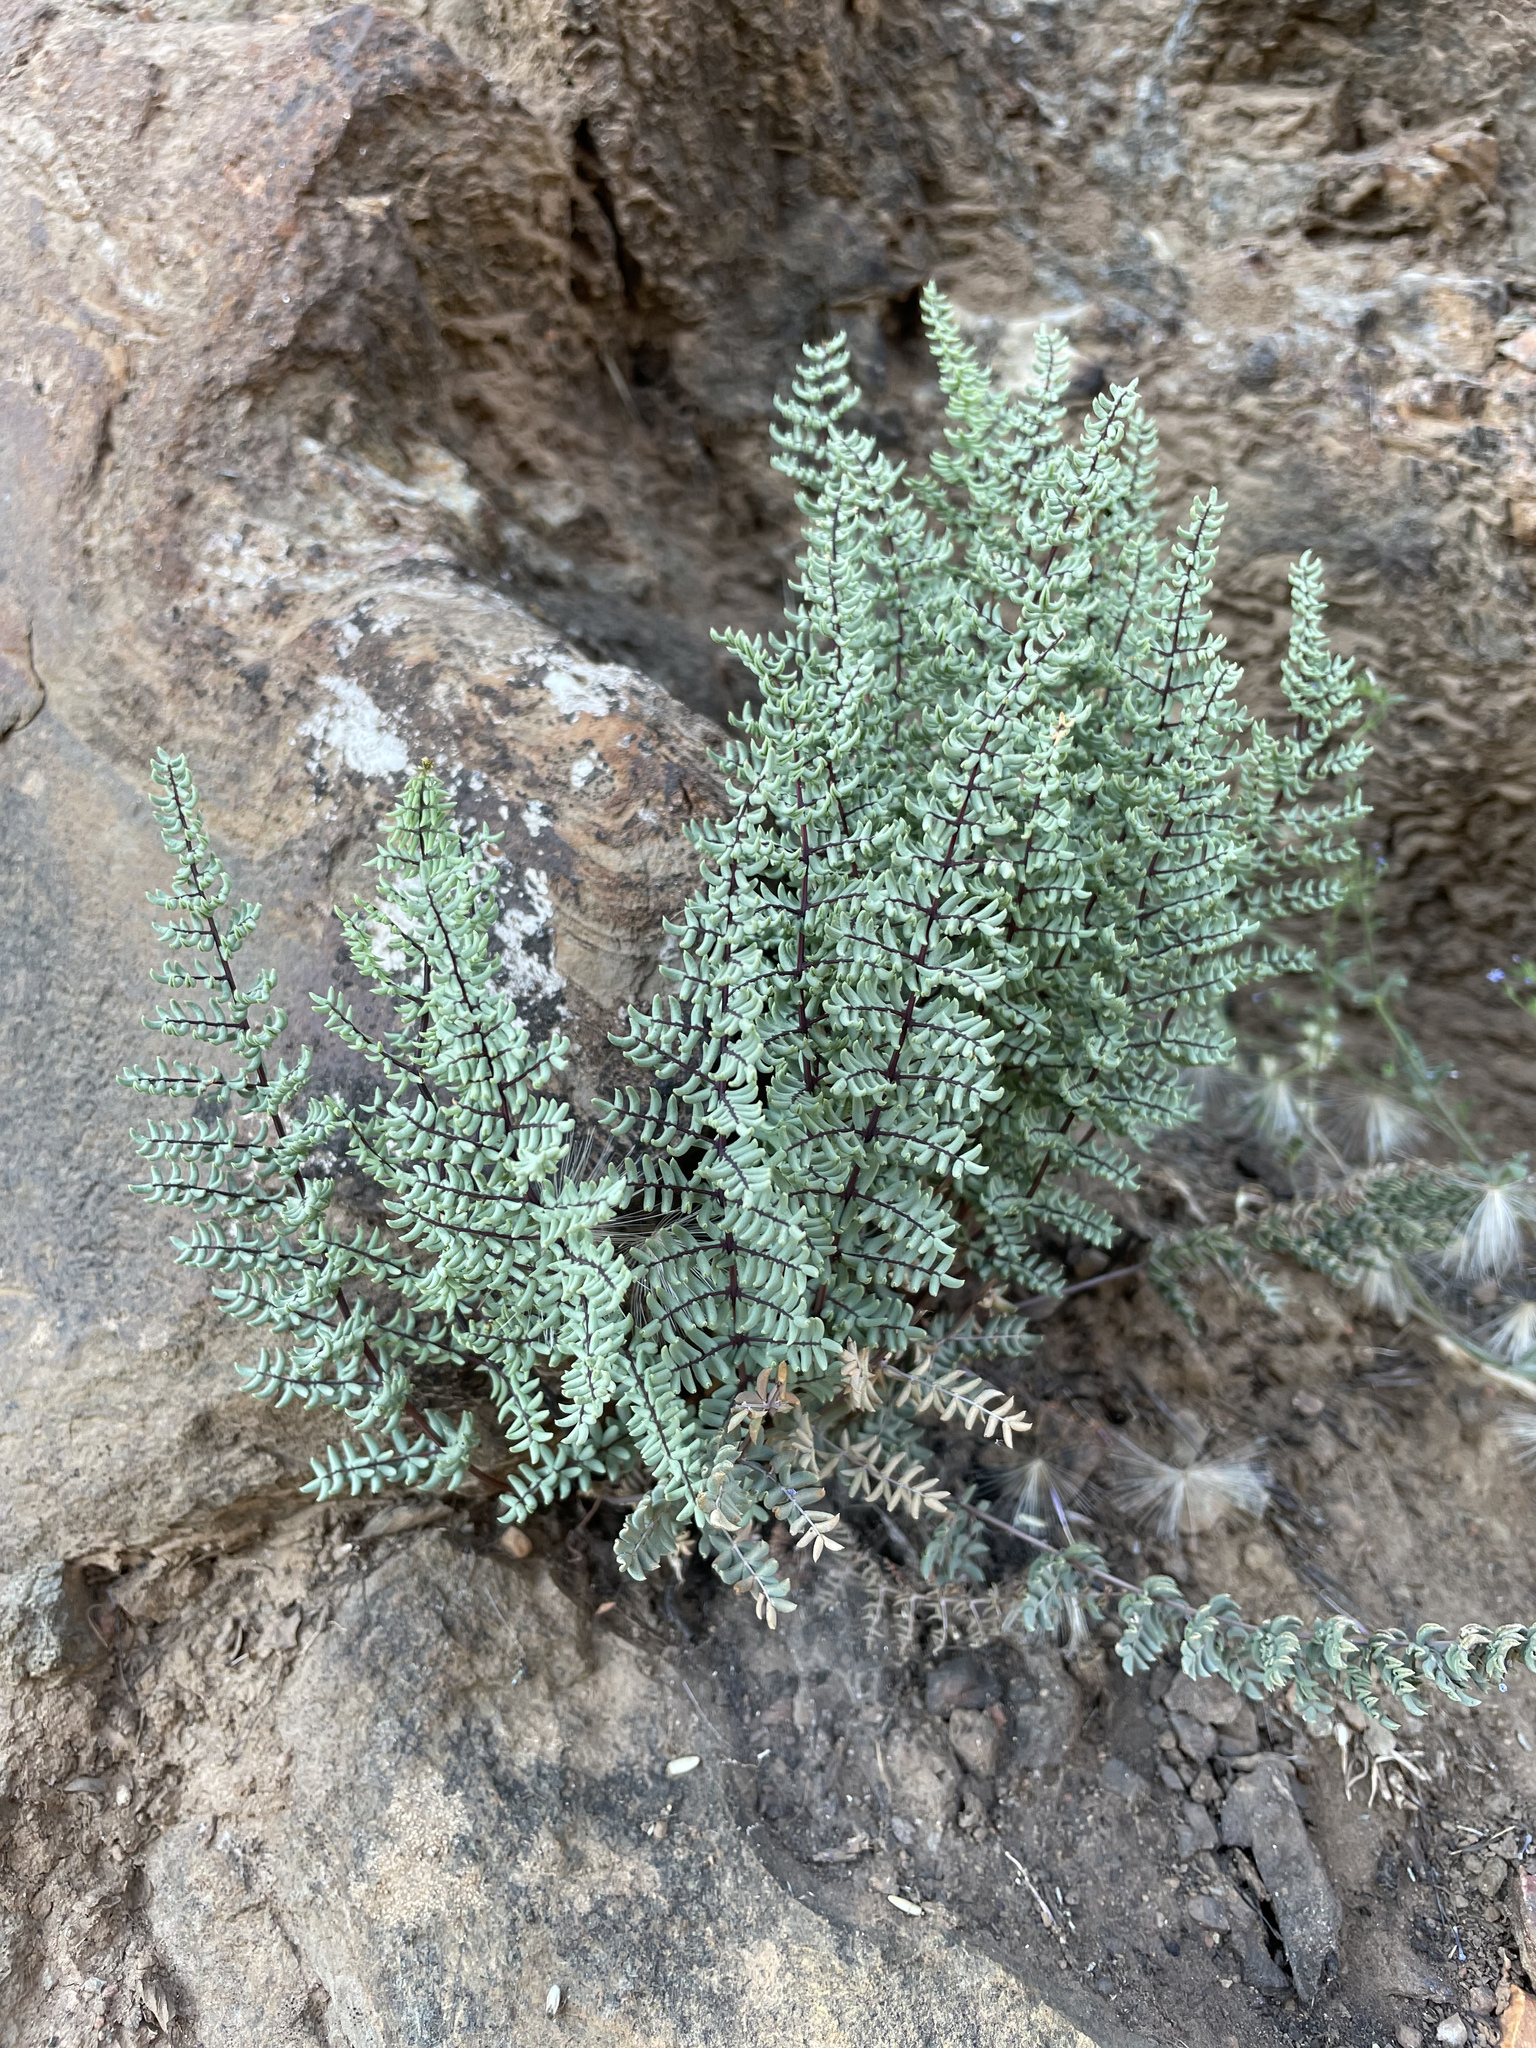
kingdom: Plantae
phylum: Tracheophyta
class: Polypodiopsida
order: Polypodiales
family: Pteridaceae
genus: Pellaea
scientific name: Pellaea mucronata
